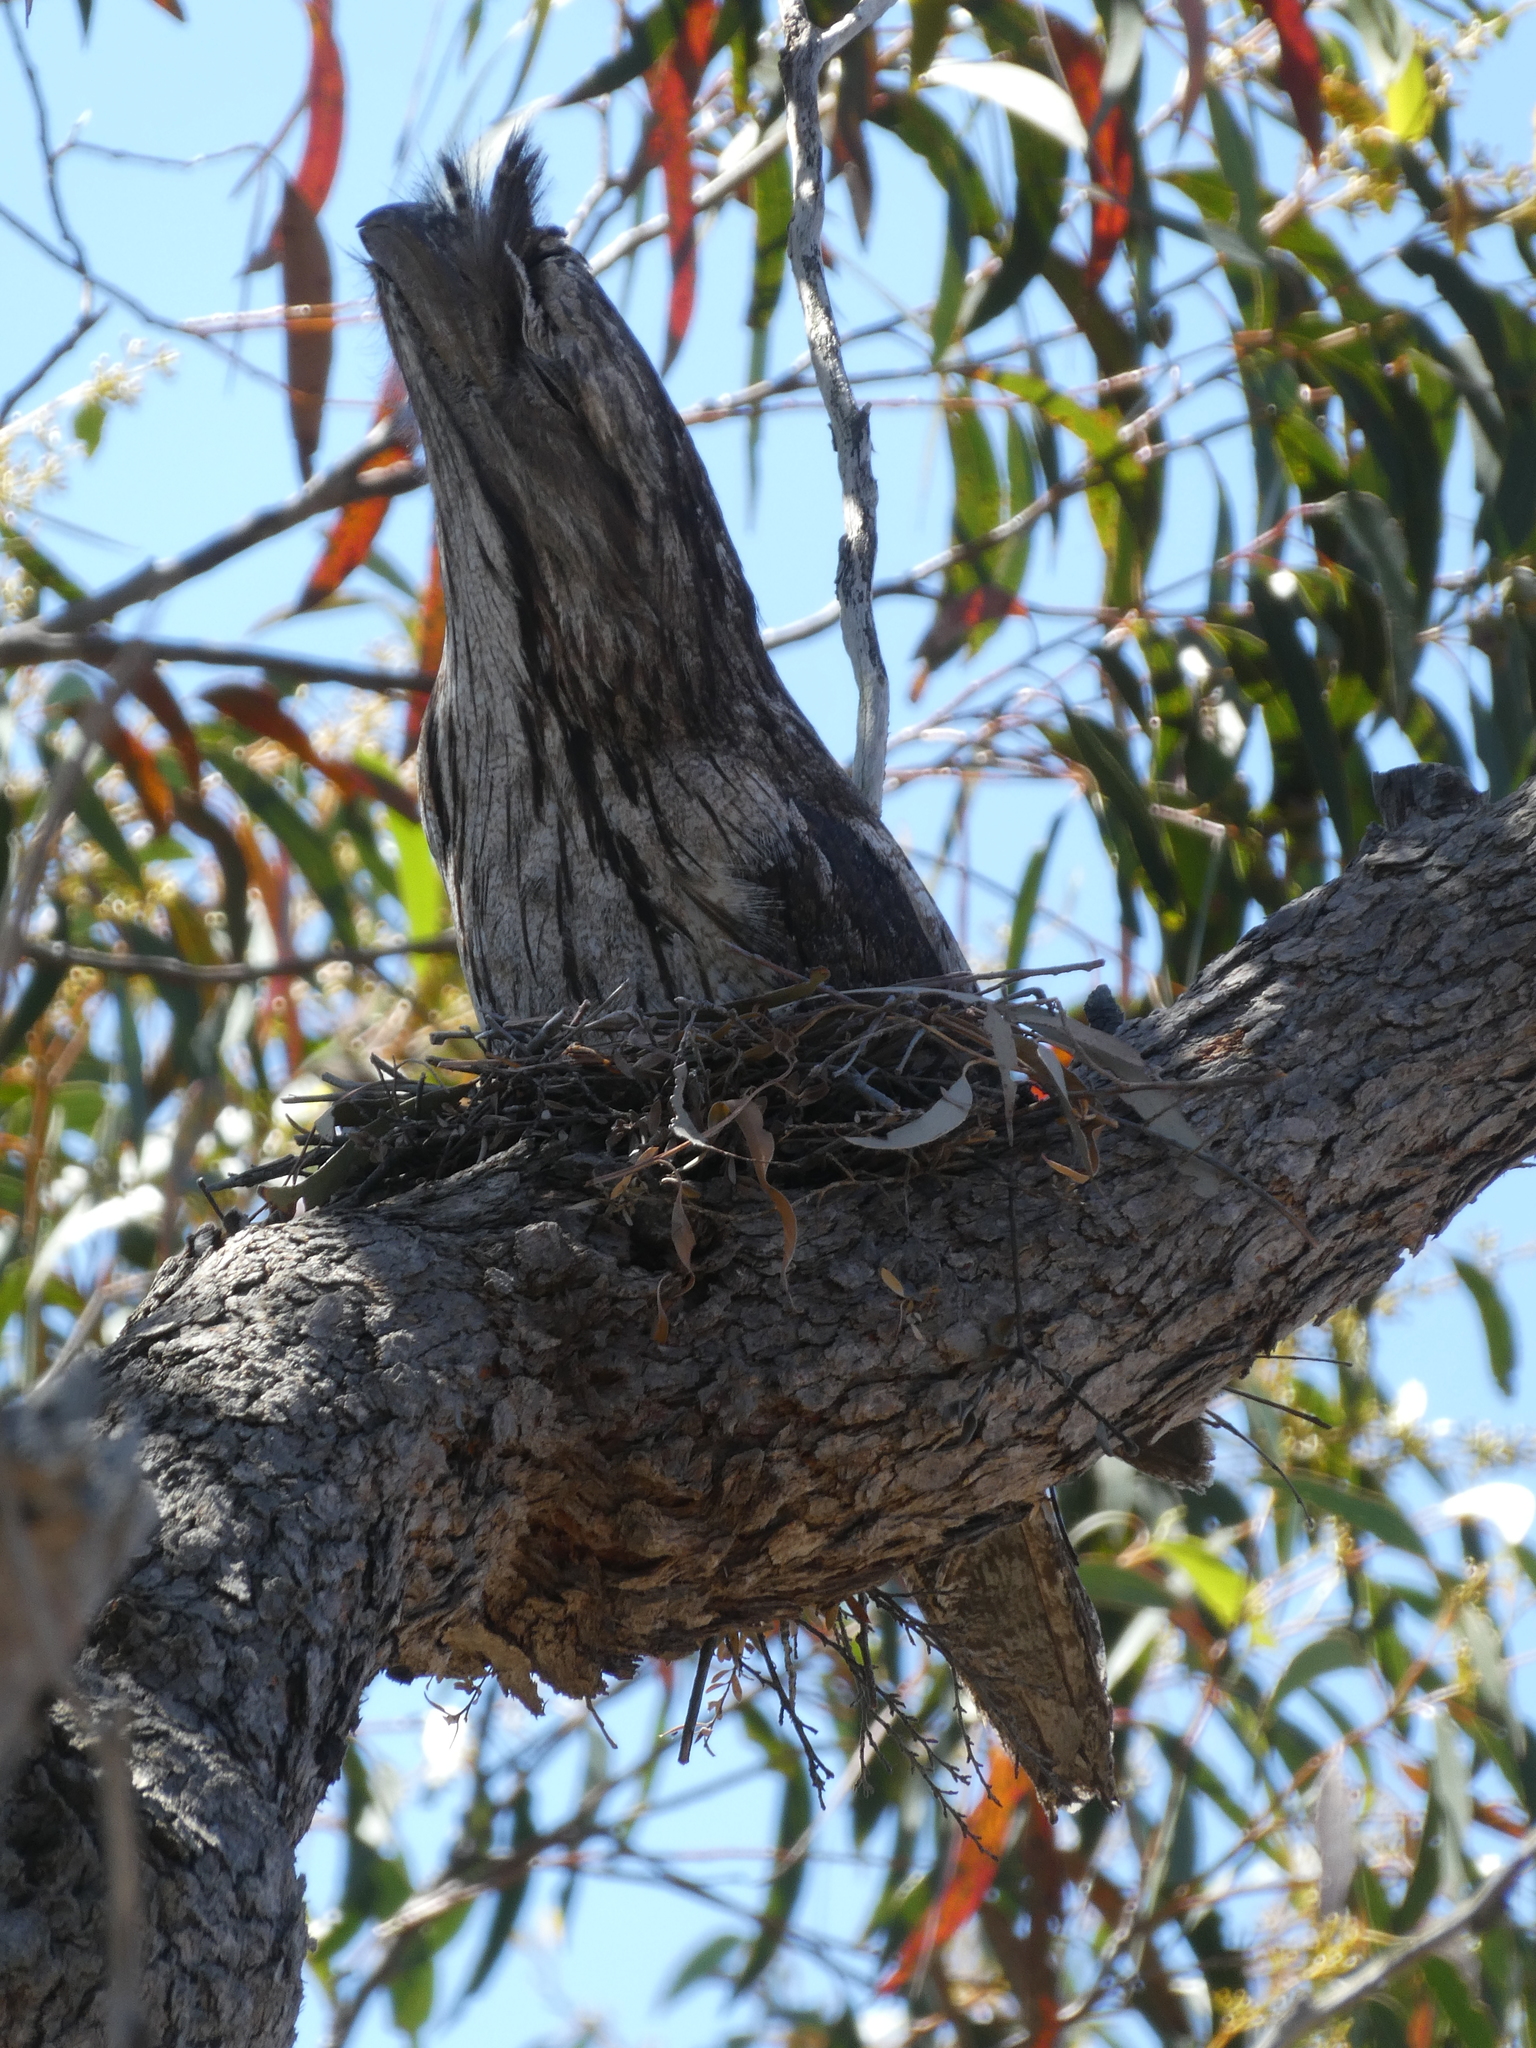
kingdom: Animalia
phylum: Chordata
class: Aves
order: Caprimulgiformes
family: Podargidae
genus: Podargus
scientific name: Podargus strigoides
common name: Tawny frogmouth
